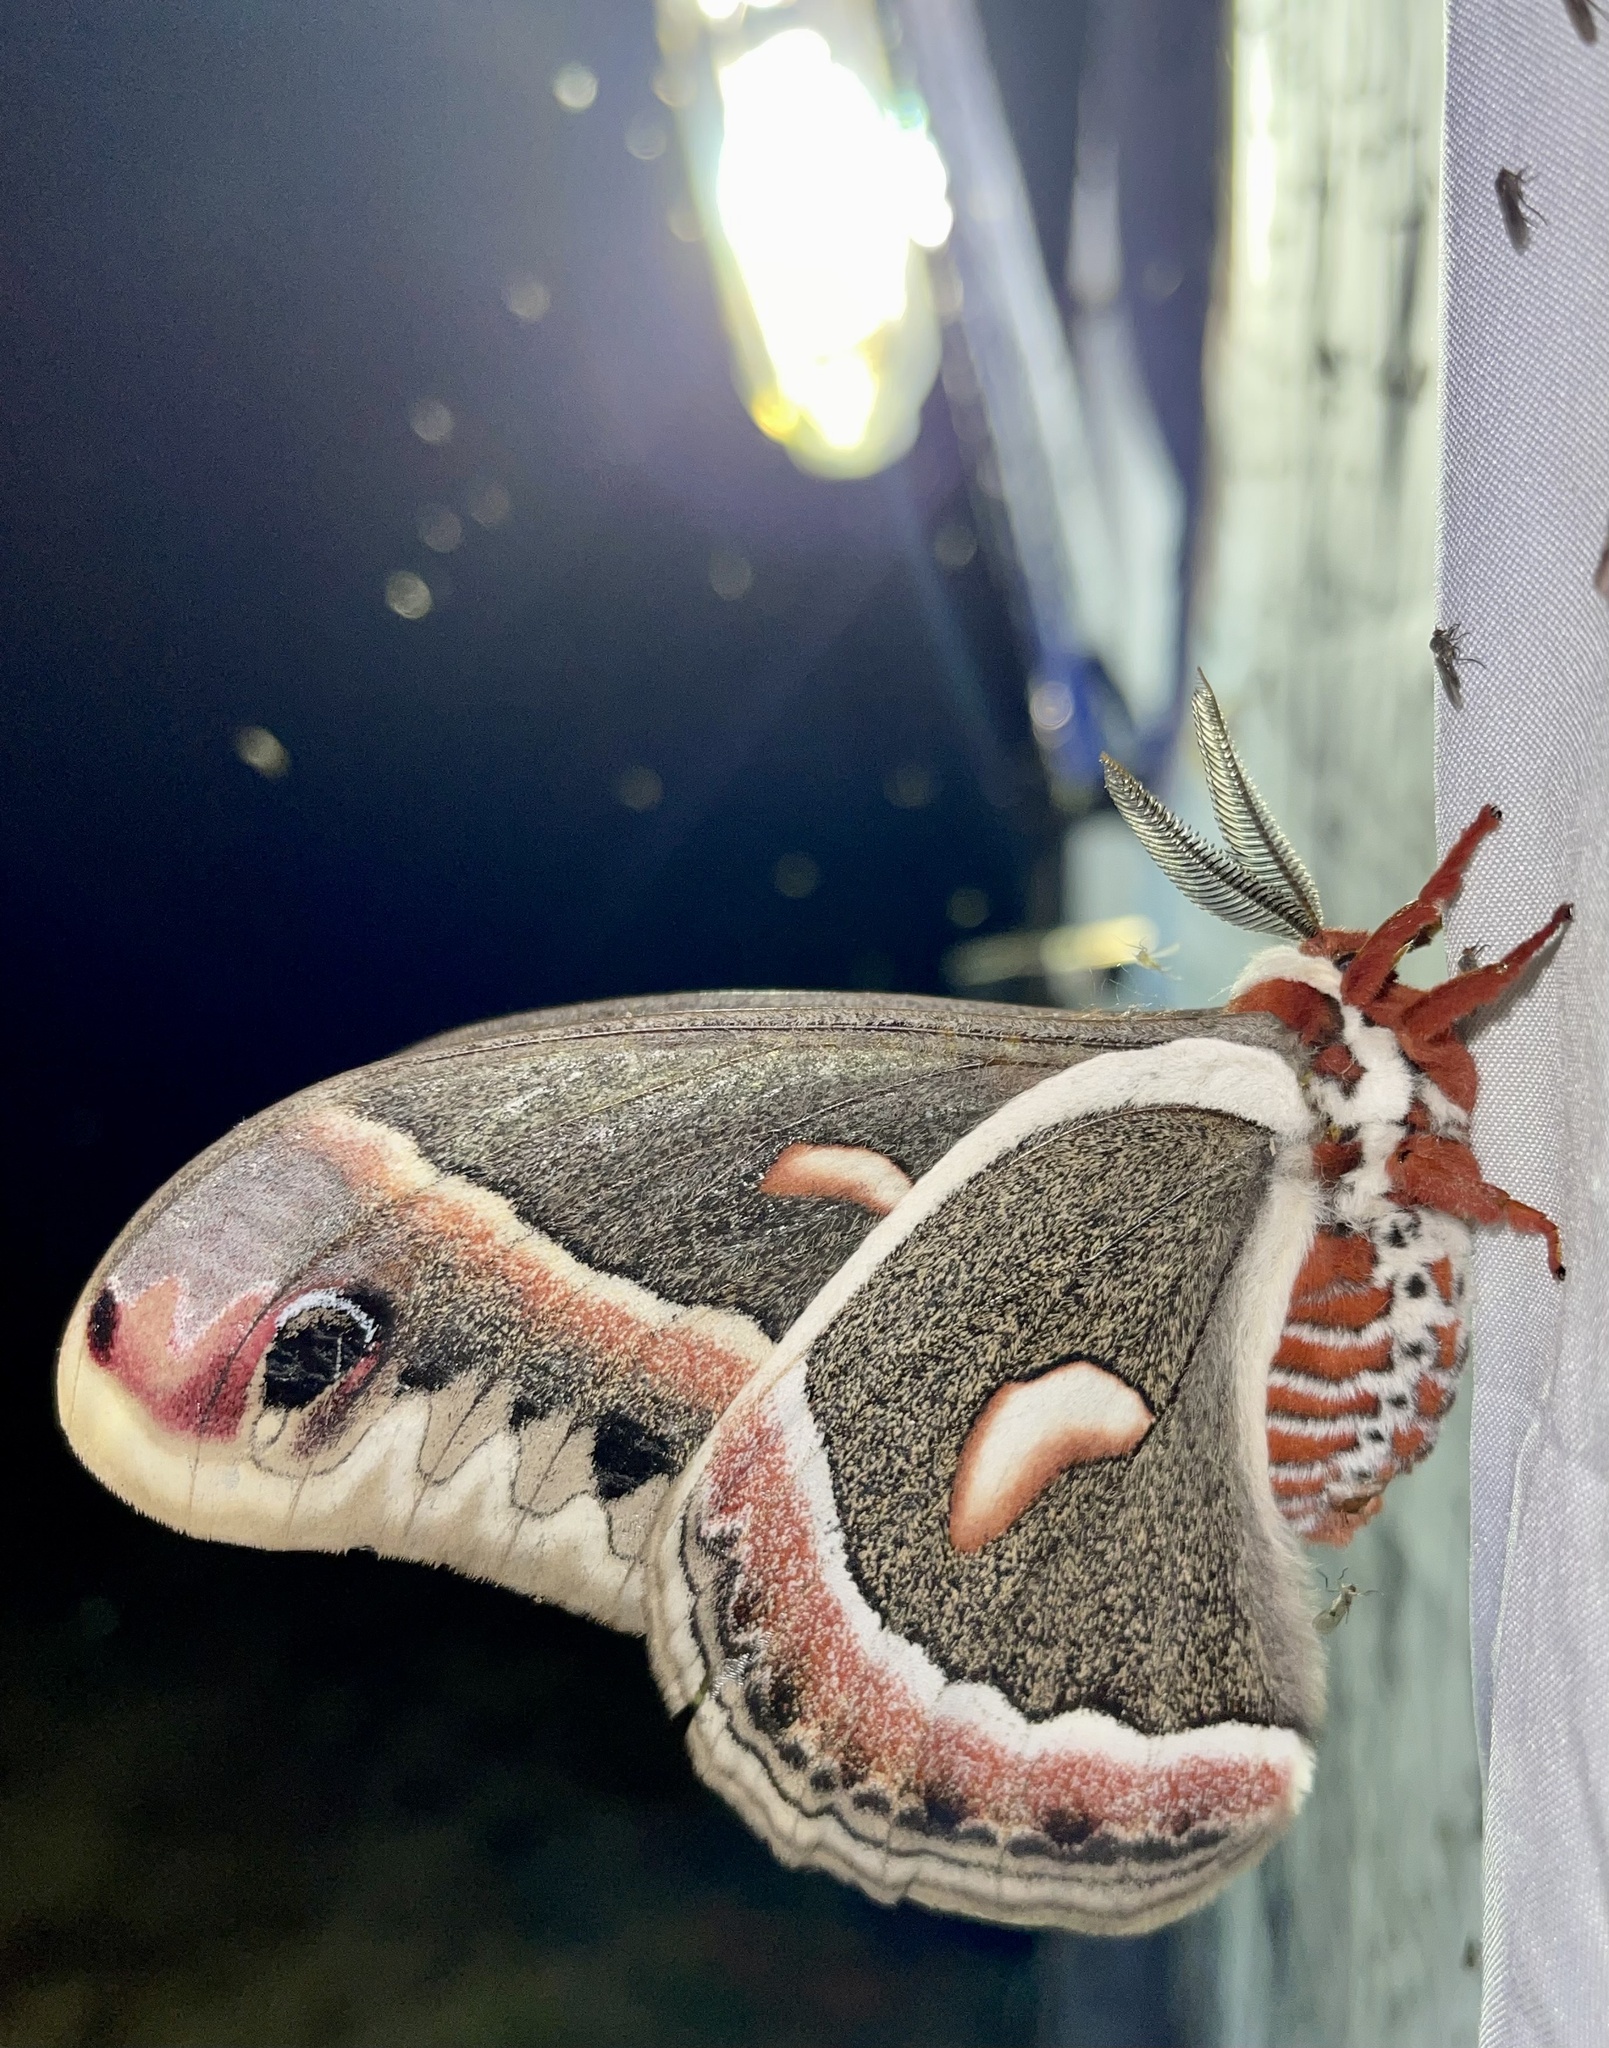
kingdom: Animalia
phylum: Arthropoda
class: Insecta
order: Lepidoptera
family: Saturniidae
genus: Hyalophora
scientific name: Hyalophora cecropia
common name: Cecropia silkmoth
